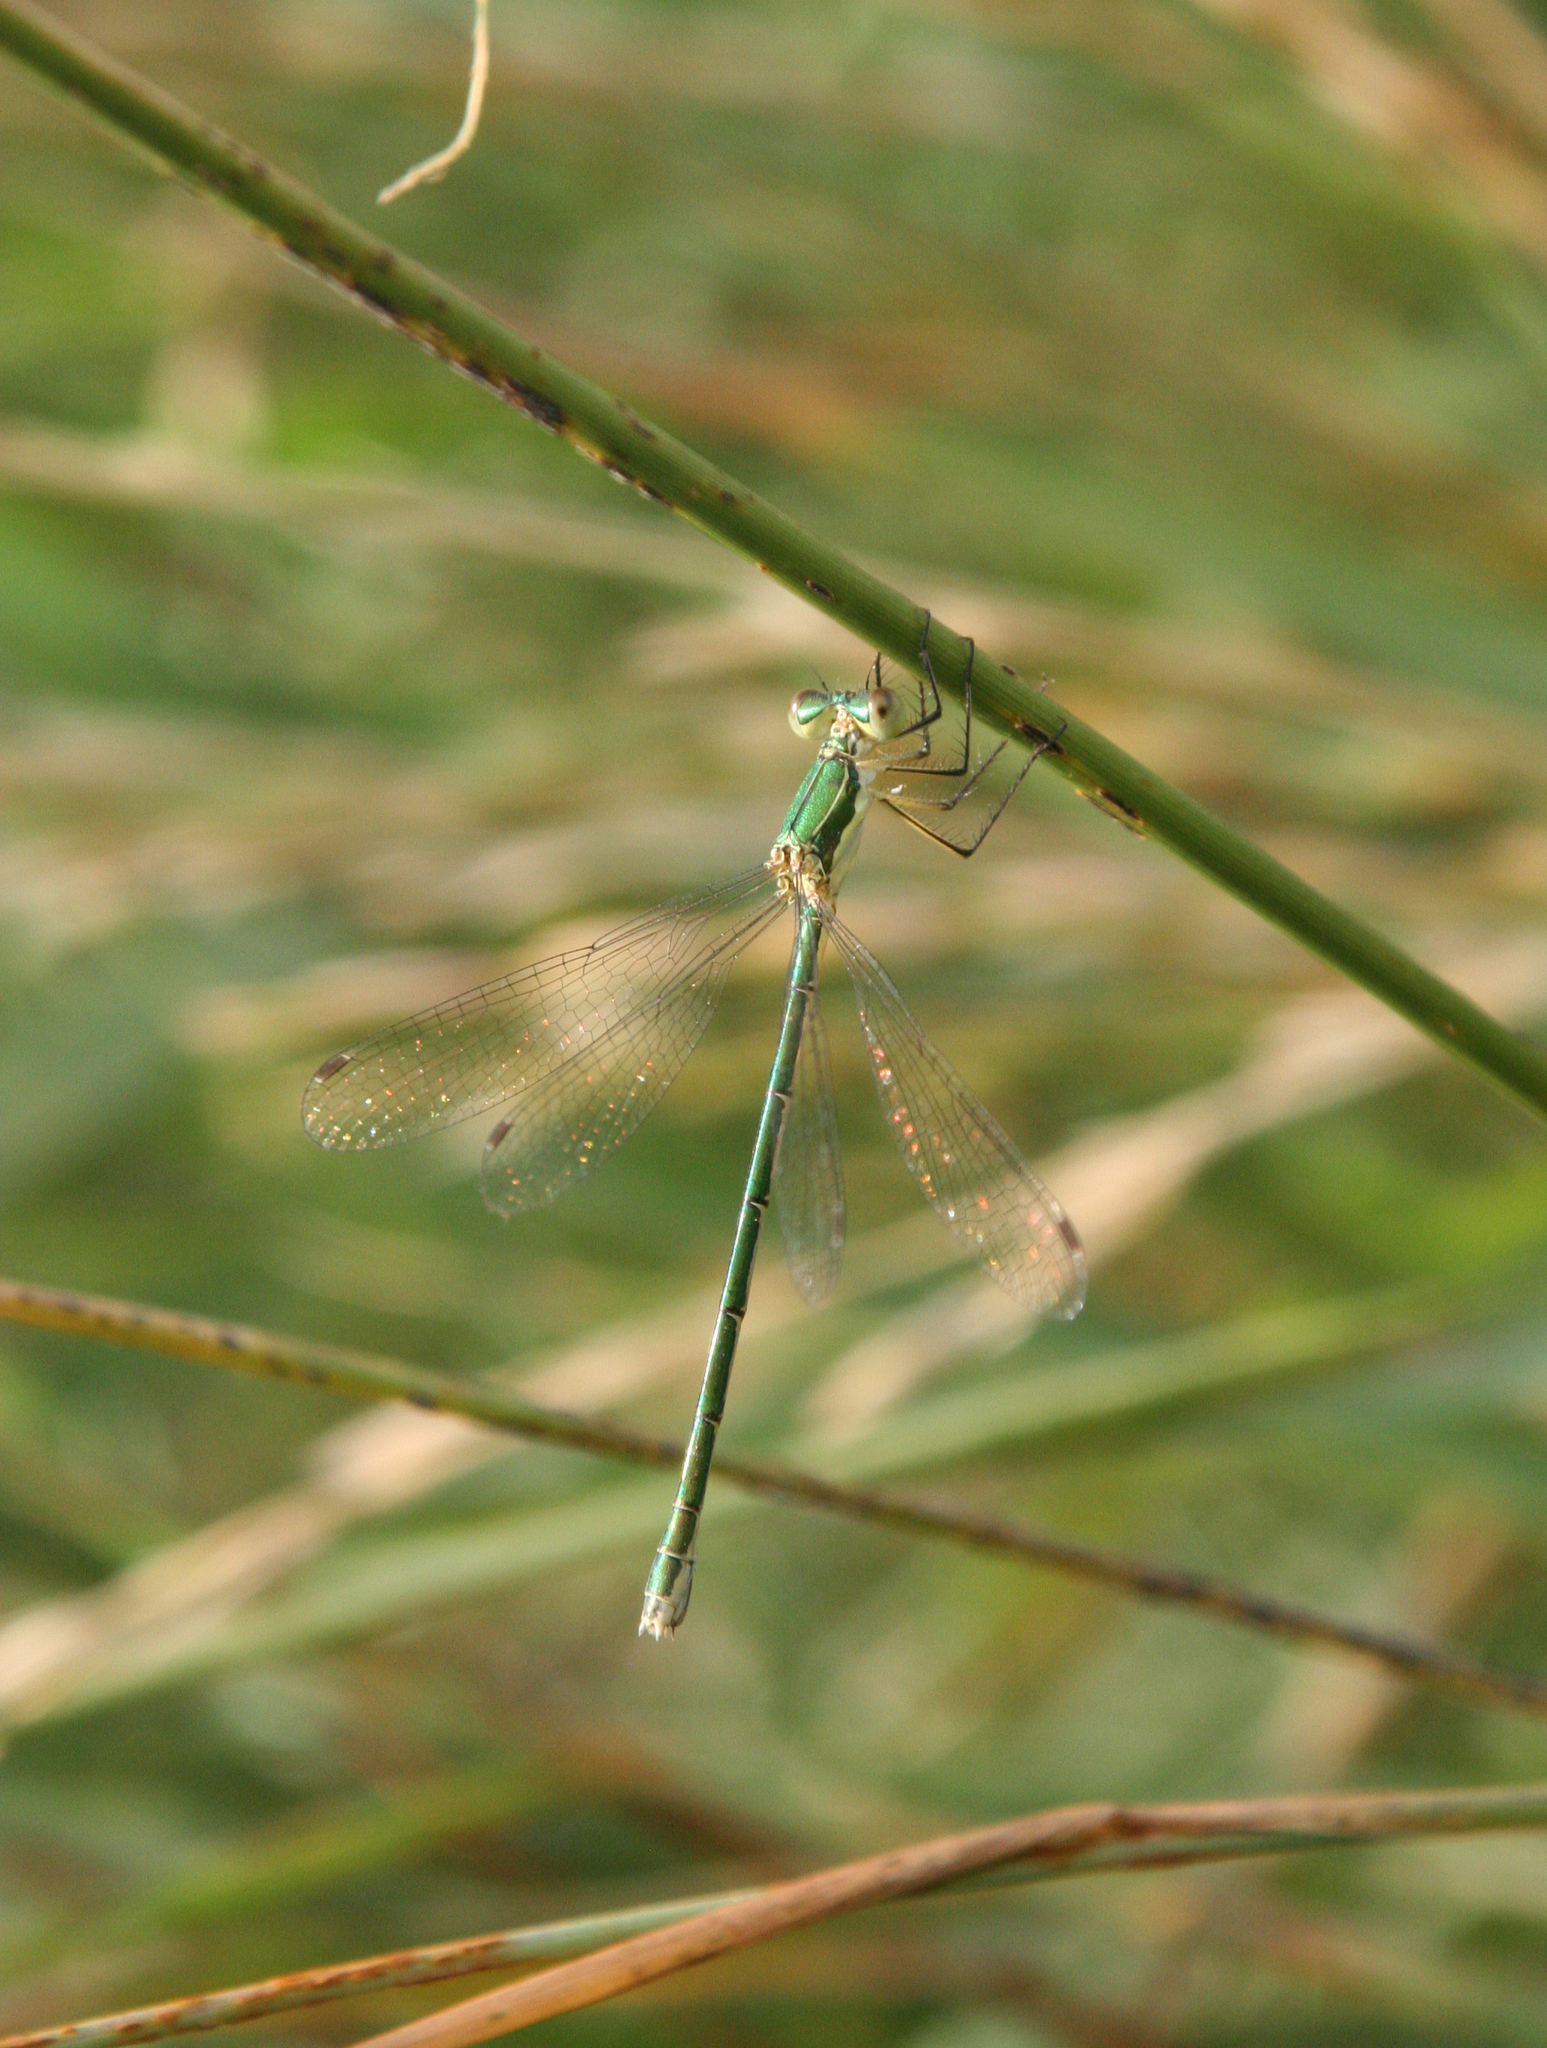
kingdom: Animalia
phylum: Arthropoda
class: Insecta
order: Odonata
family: Lestidae
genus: Lestes
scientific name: Lestes virens
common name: Small emerald spreadwing
